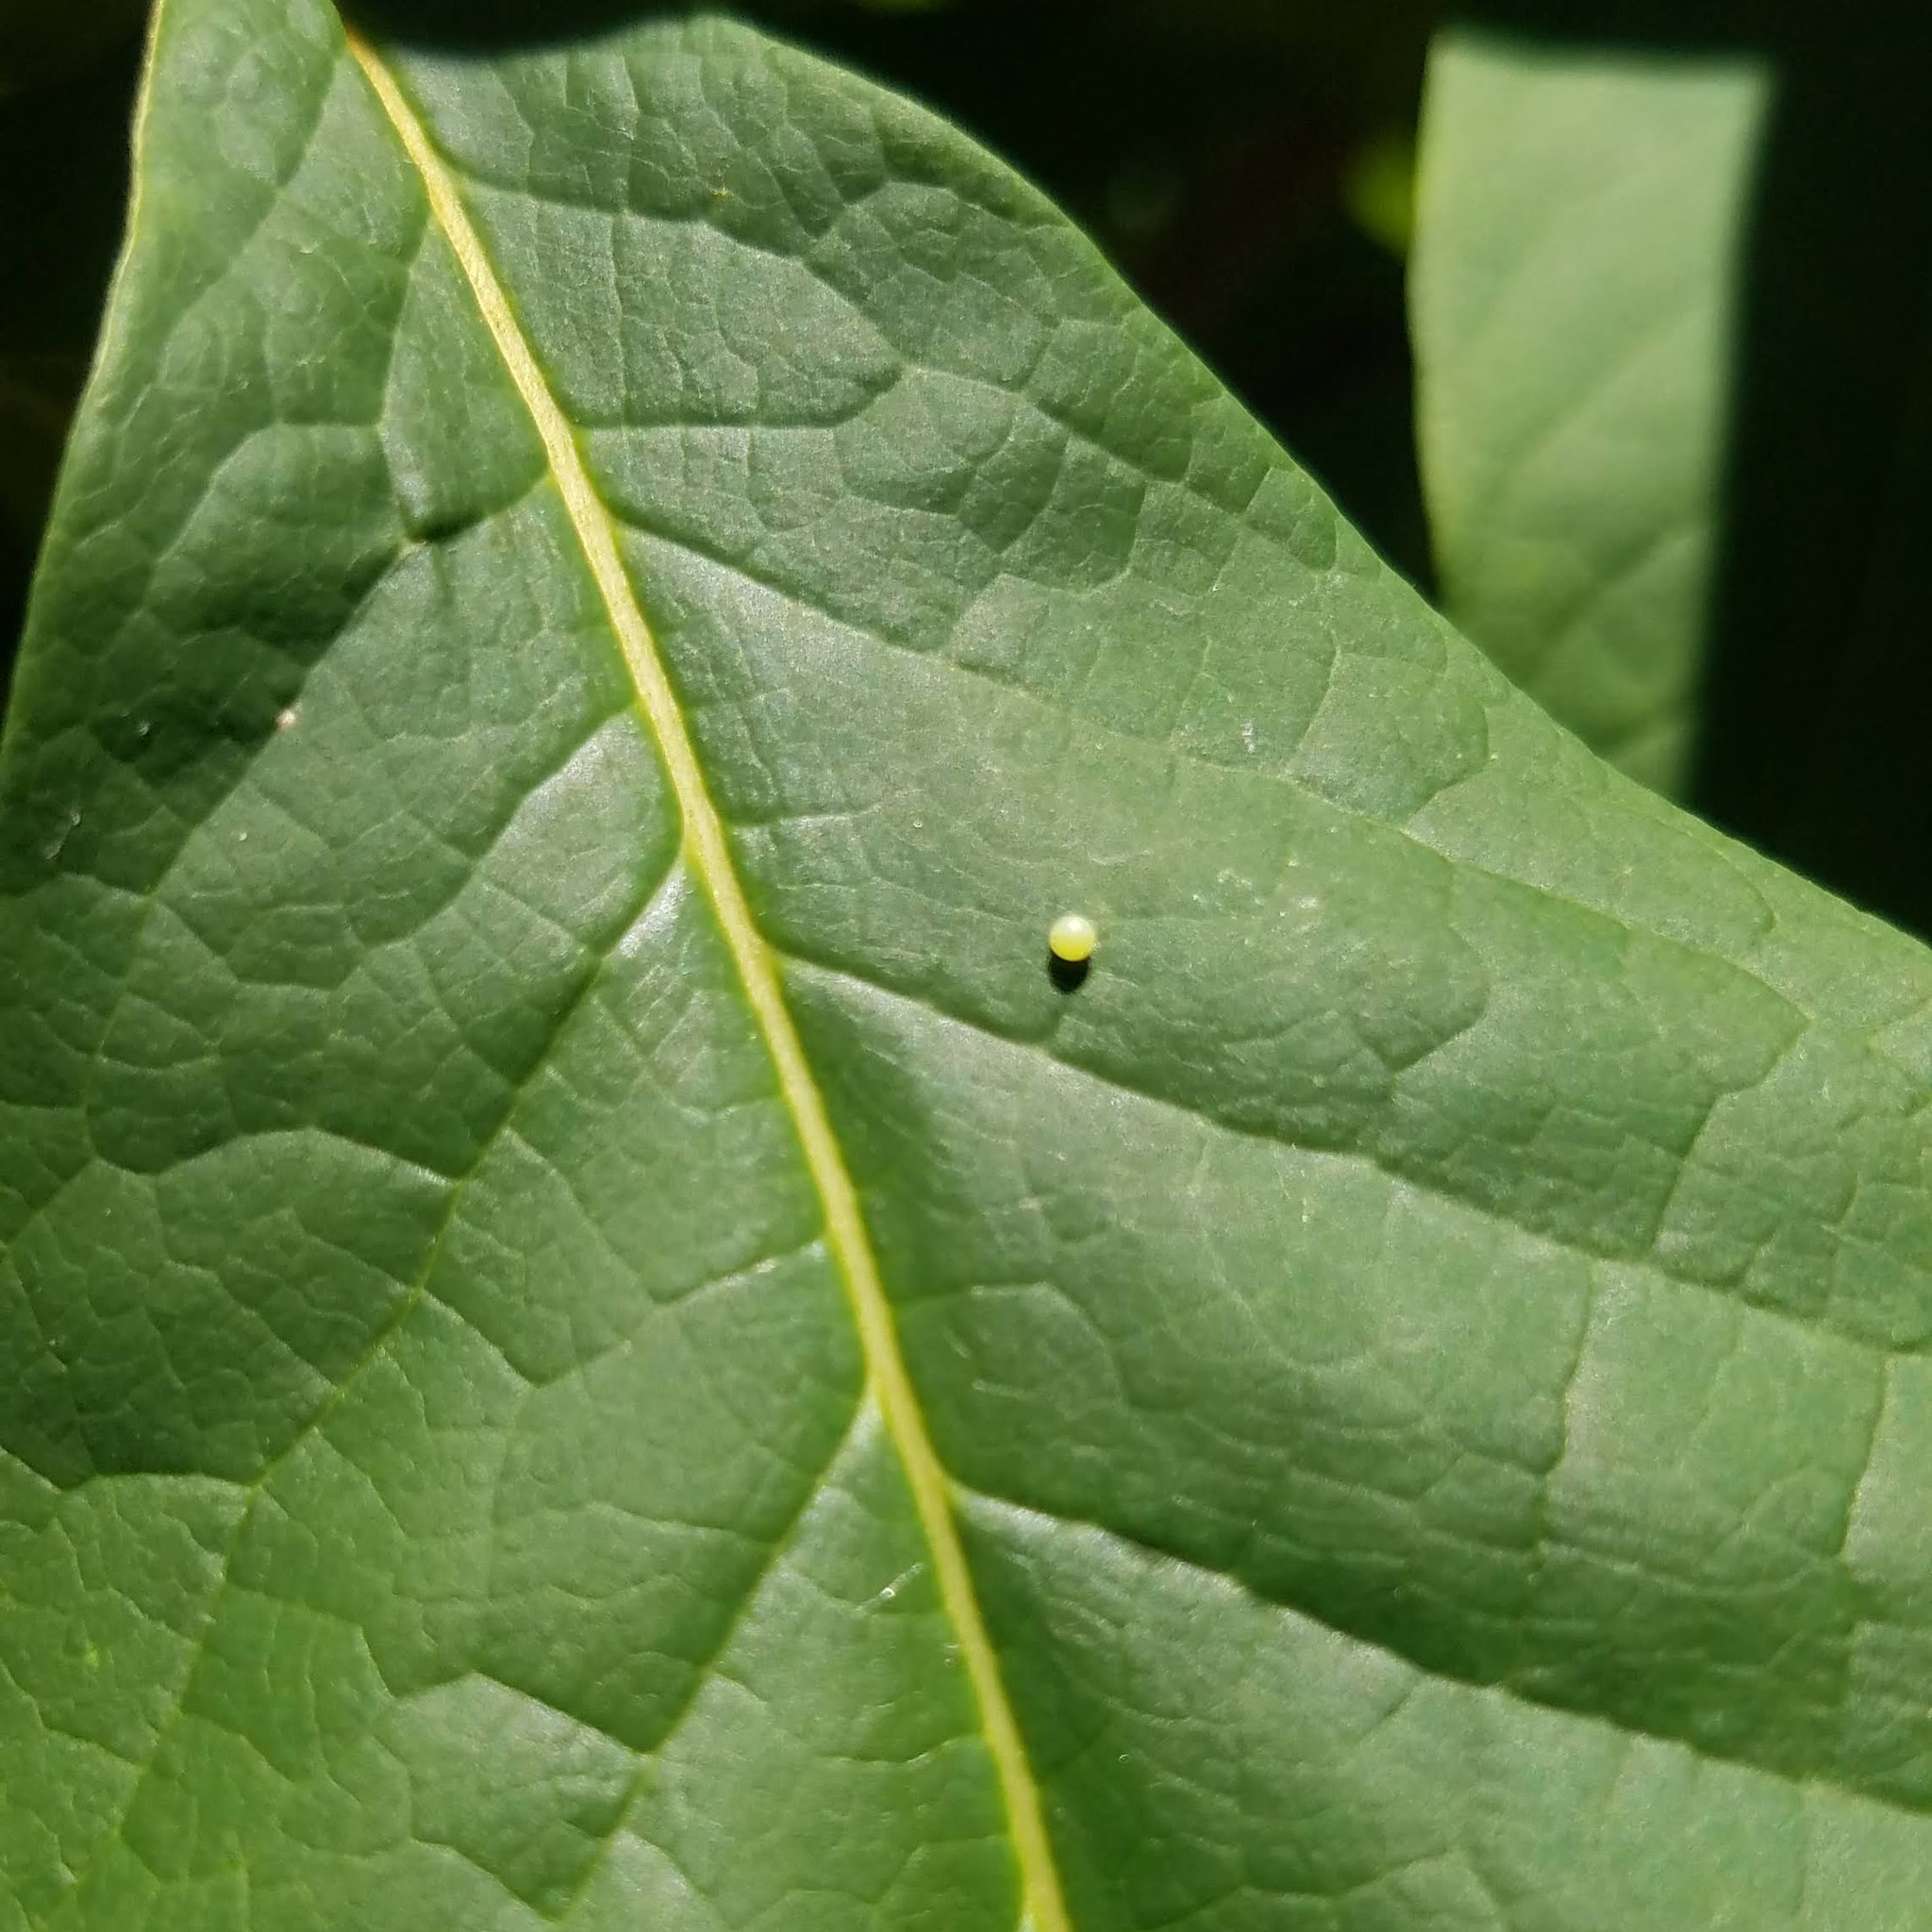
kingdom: Animalia
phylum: Arthropoda
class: Insecta
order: Lepidoptera
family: Papilionidae
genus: Protographium
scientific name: Protographium marcellus
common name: Zebra swallowtail
